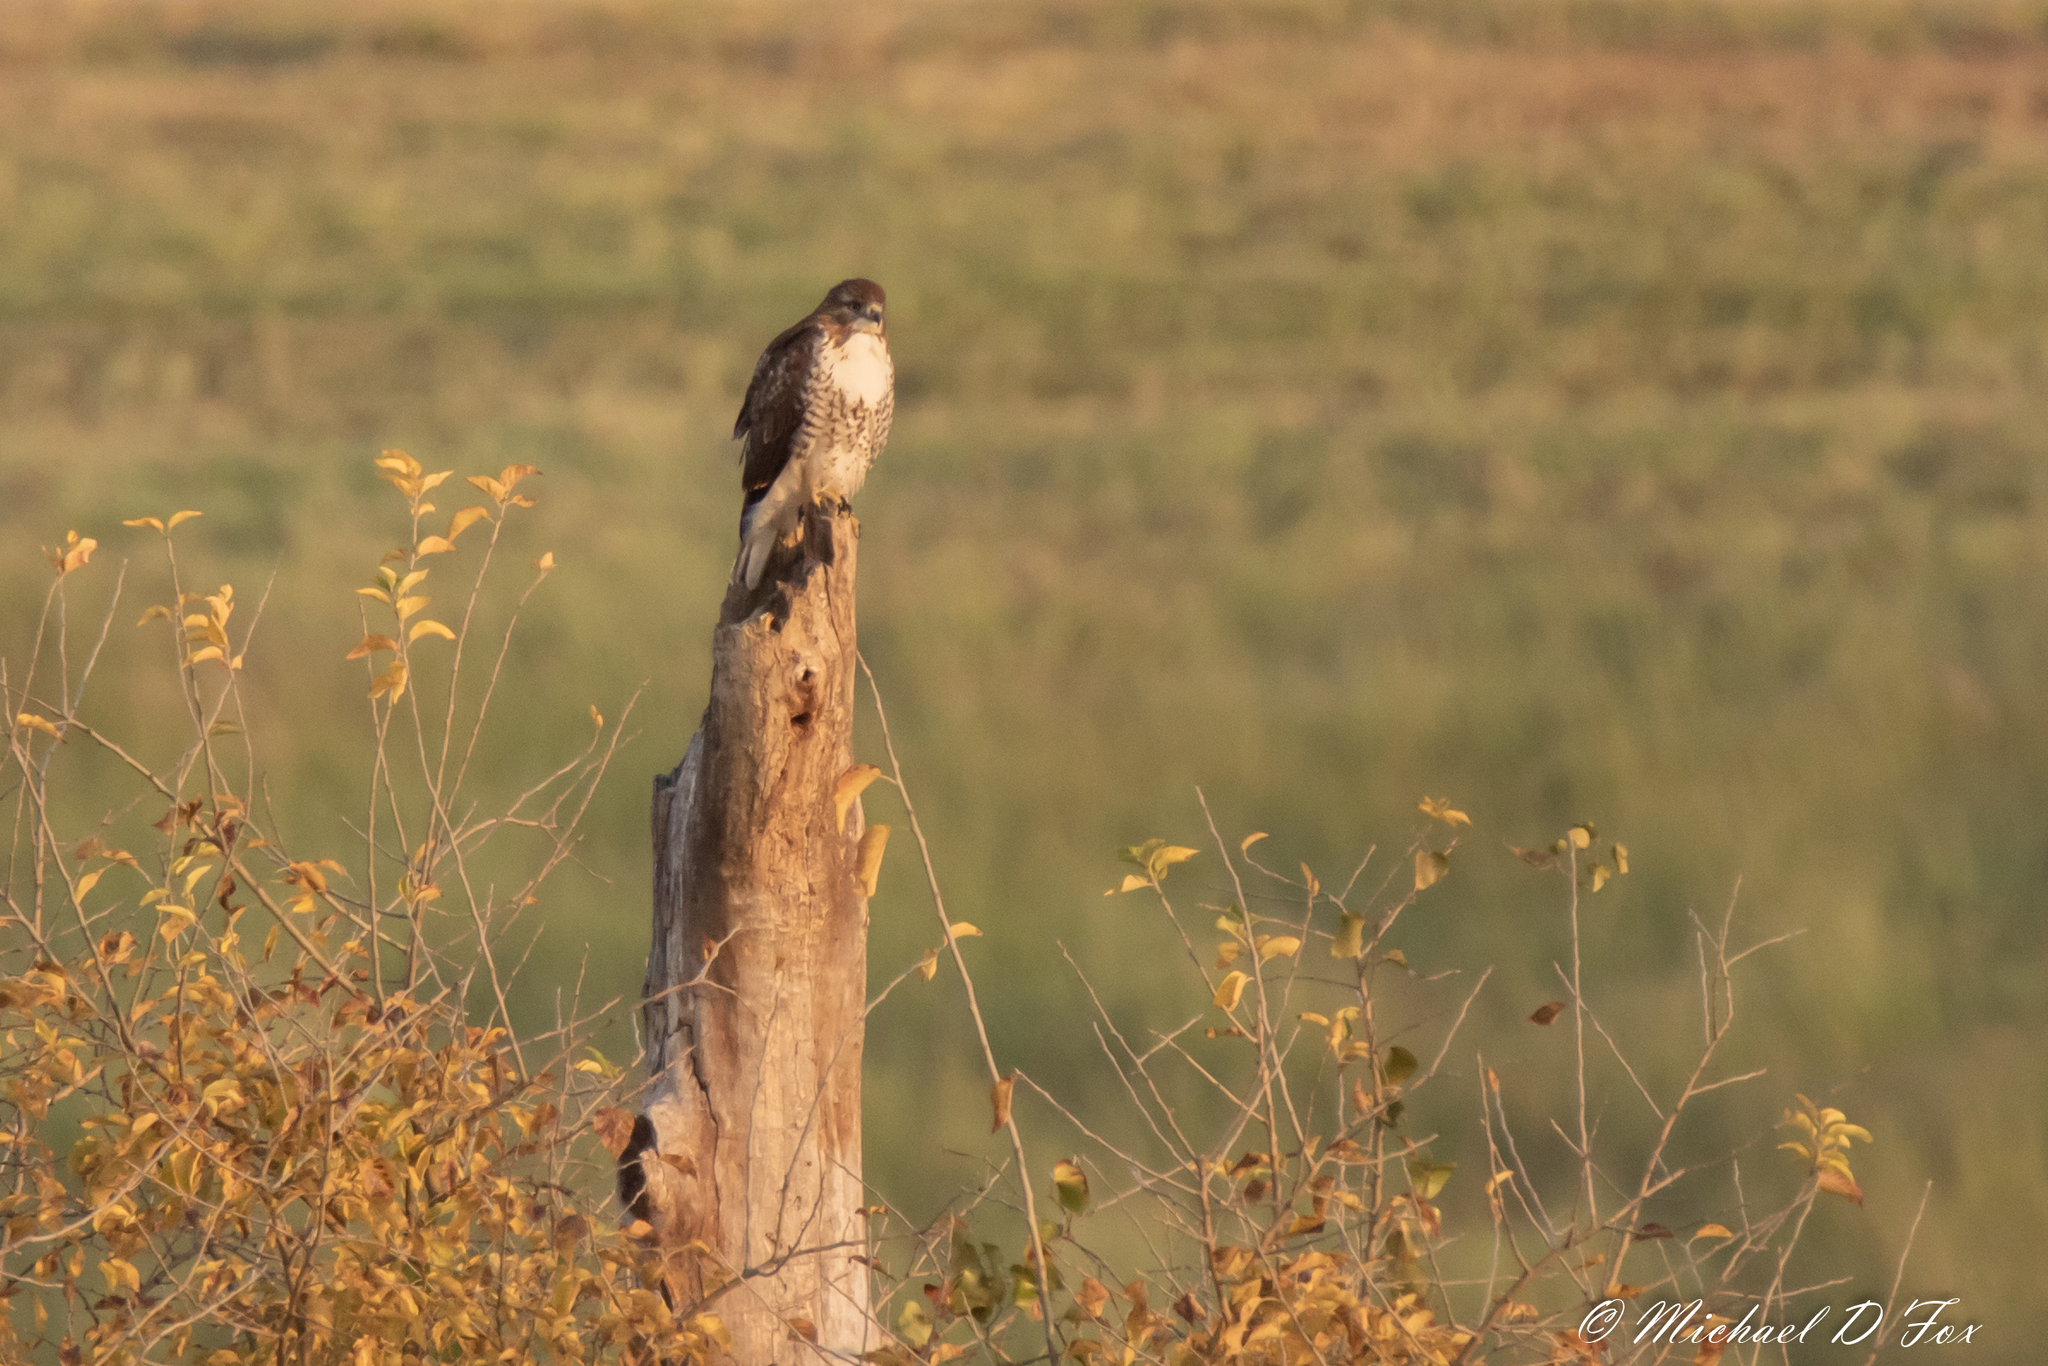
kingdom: Animalia
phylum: Chordata
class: Aves
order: Accipitriformes
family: Accipitridae
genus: Buteo
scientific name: Buteo jamaicensis
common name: Red-tailed hawk
